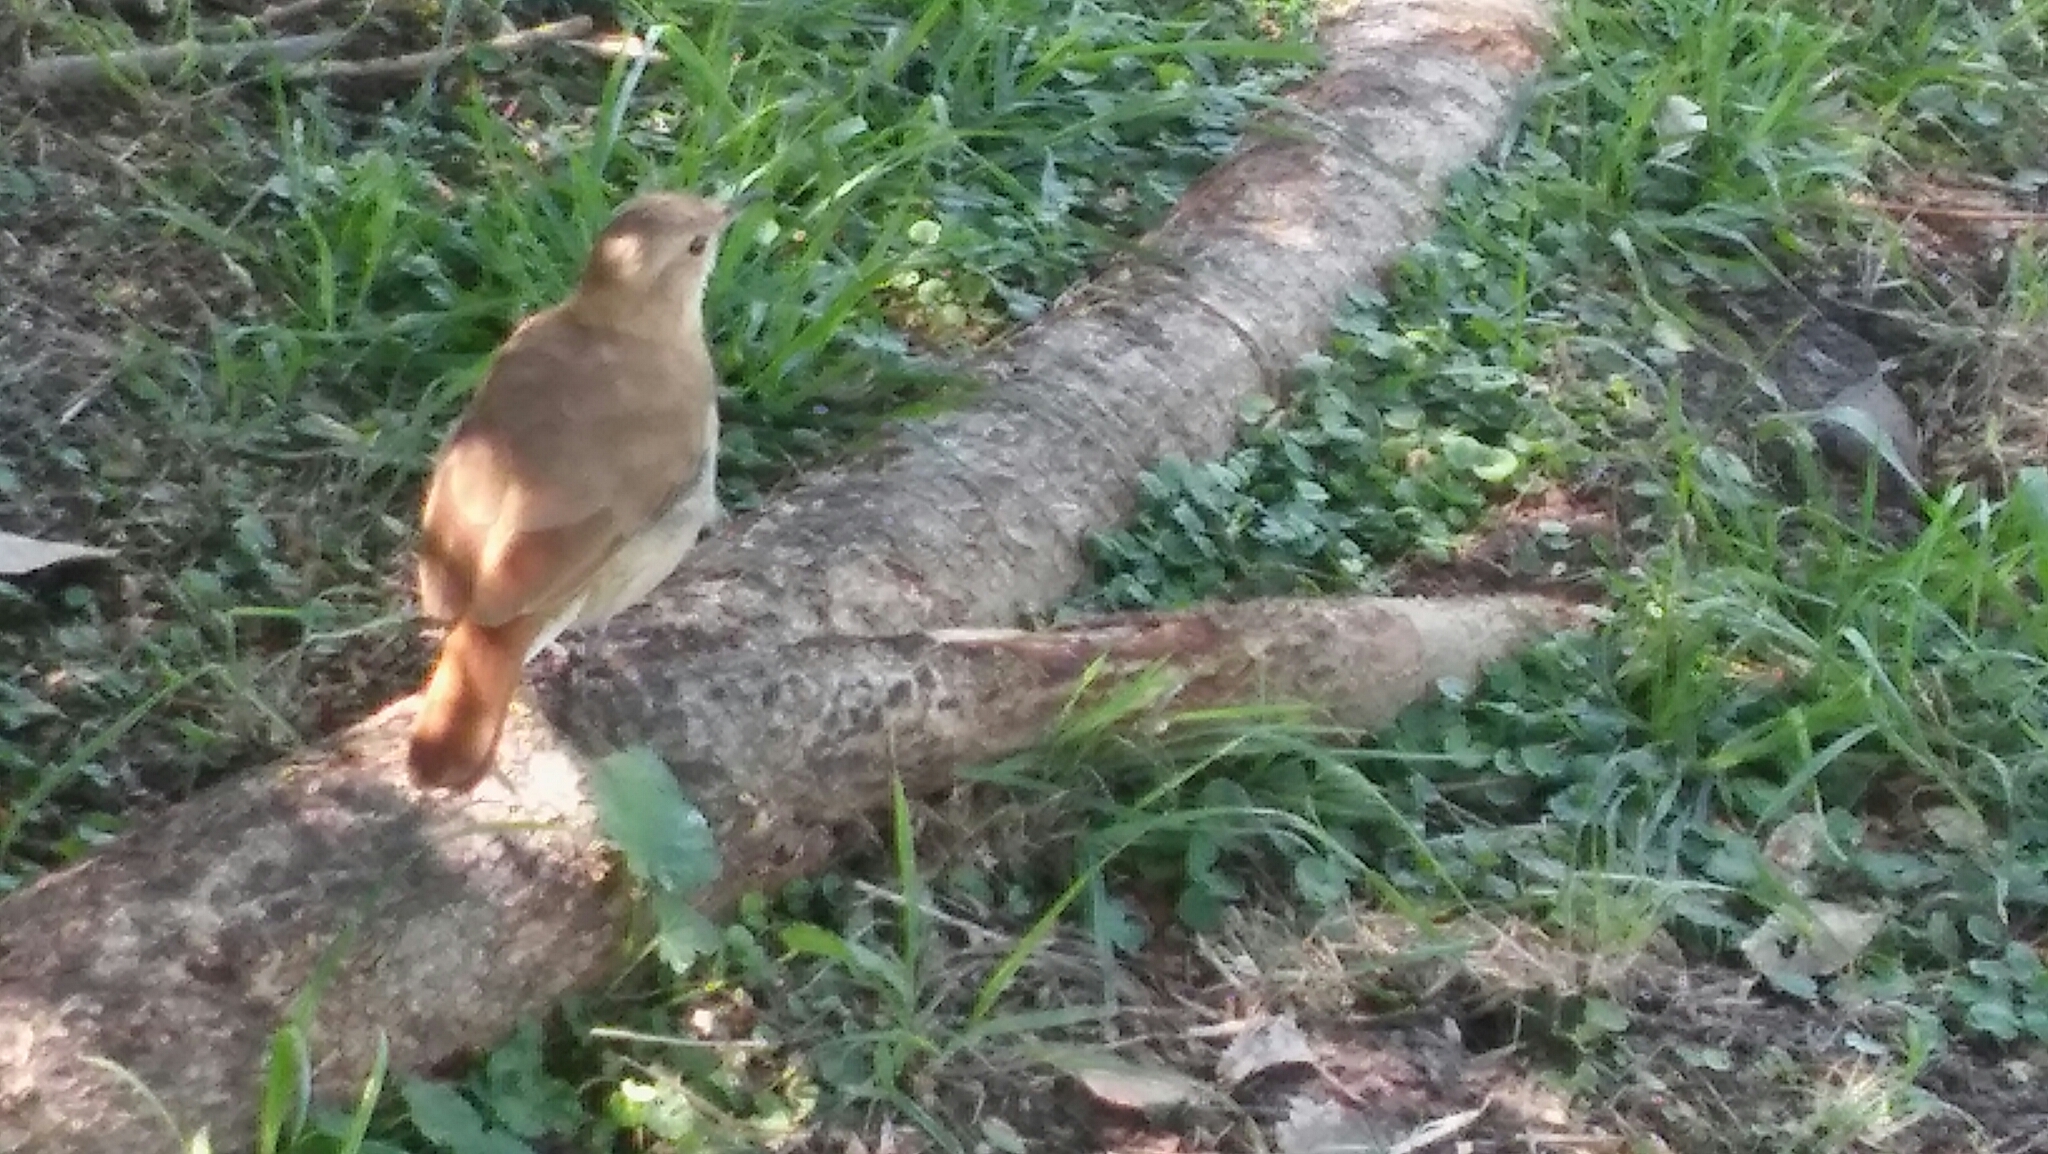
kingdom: Animalia
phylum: Chordata
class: Aves
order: Passeriformes
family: Furnariidae
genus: Furnarius
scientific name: Furnarius rufus
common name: Rufous hornero
